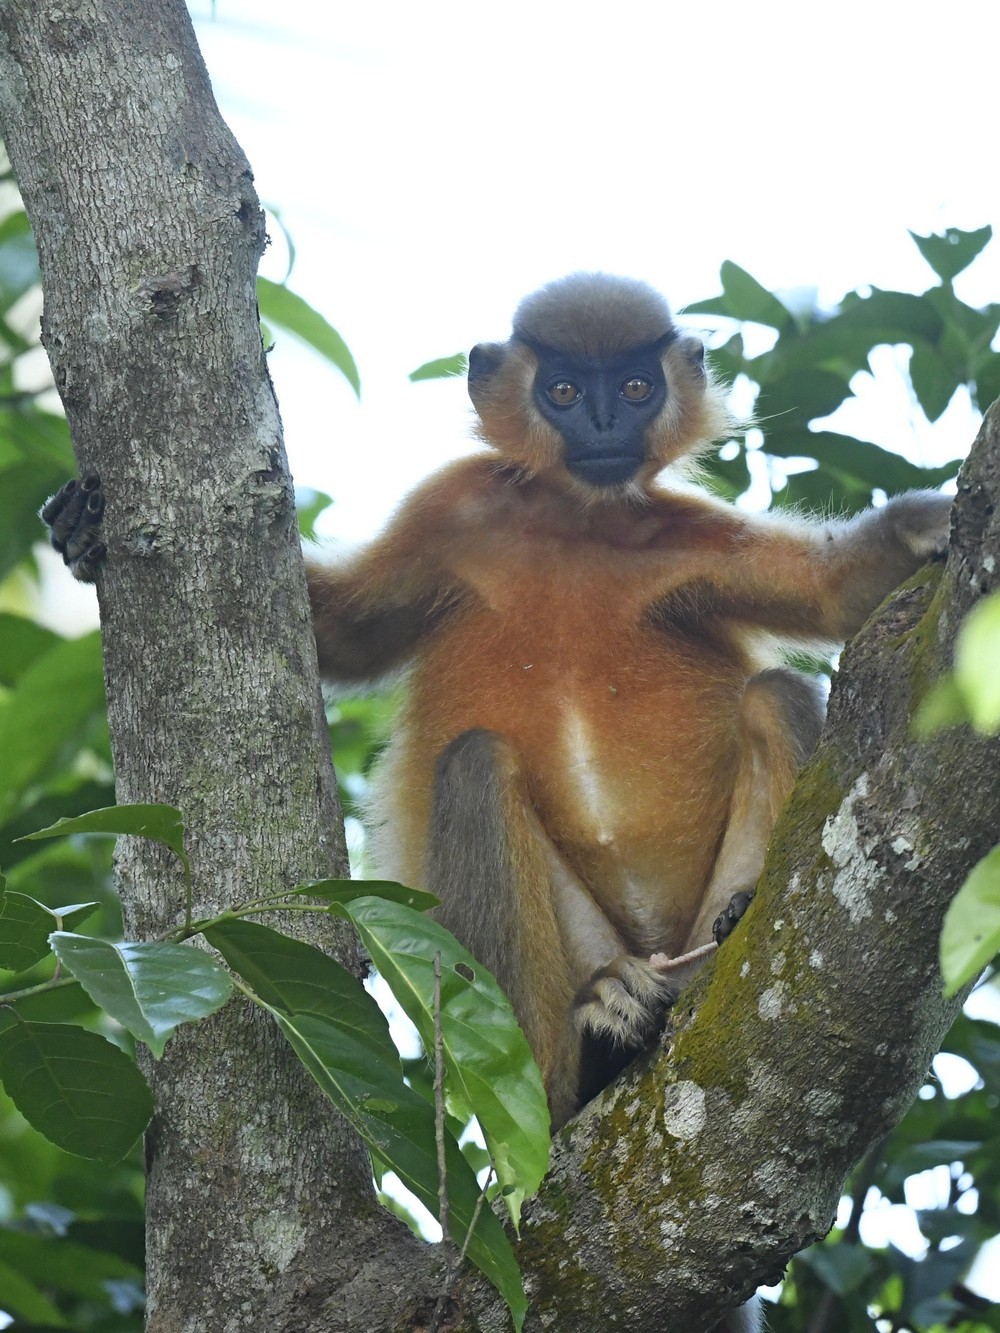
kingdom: Animalia
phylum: Chordata
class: Mammalia
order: Primates
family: Cercopithecidae
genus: Trachypithecus
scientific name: Trachypithecus pileatus
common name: Capped langur
